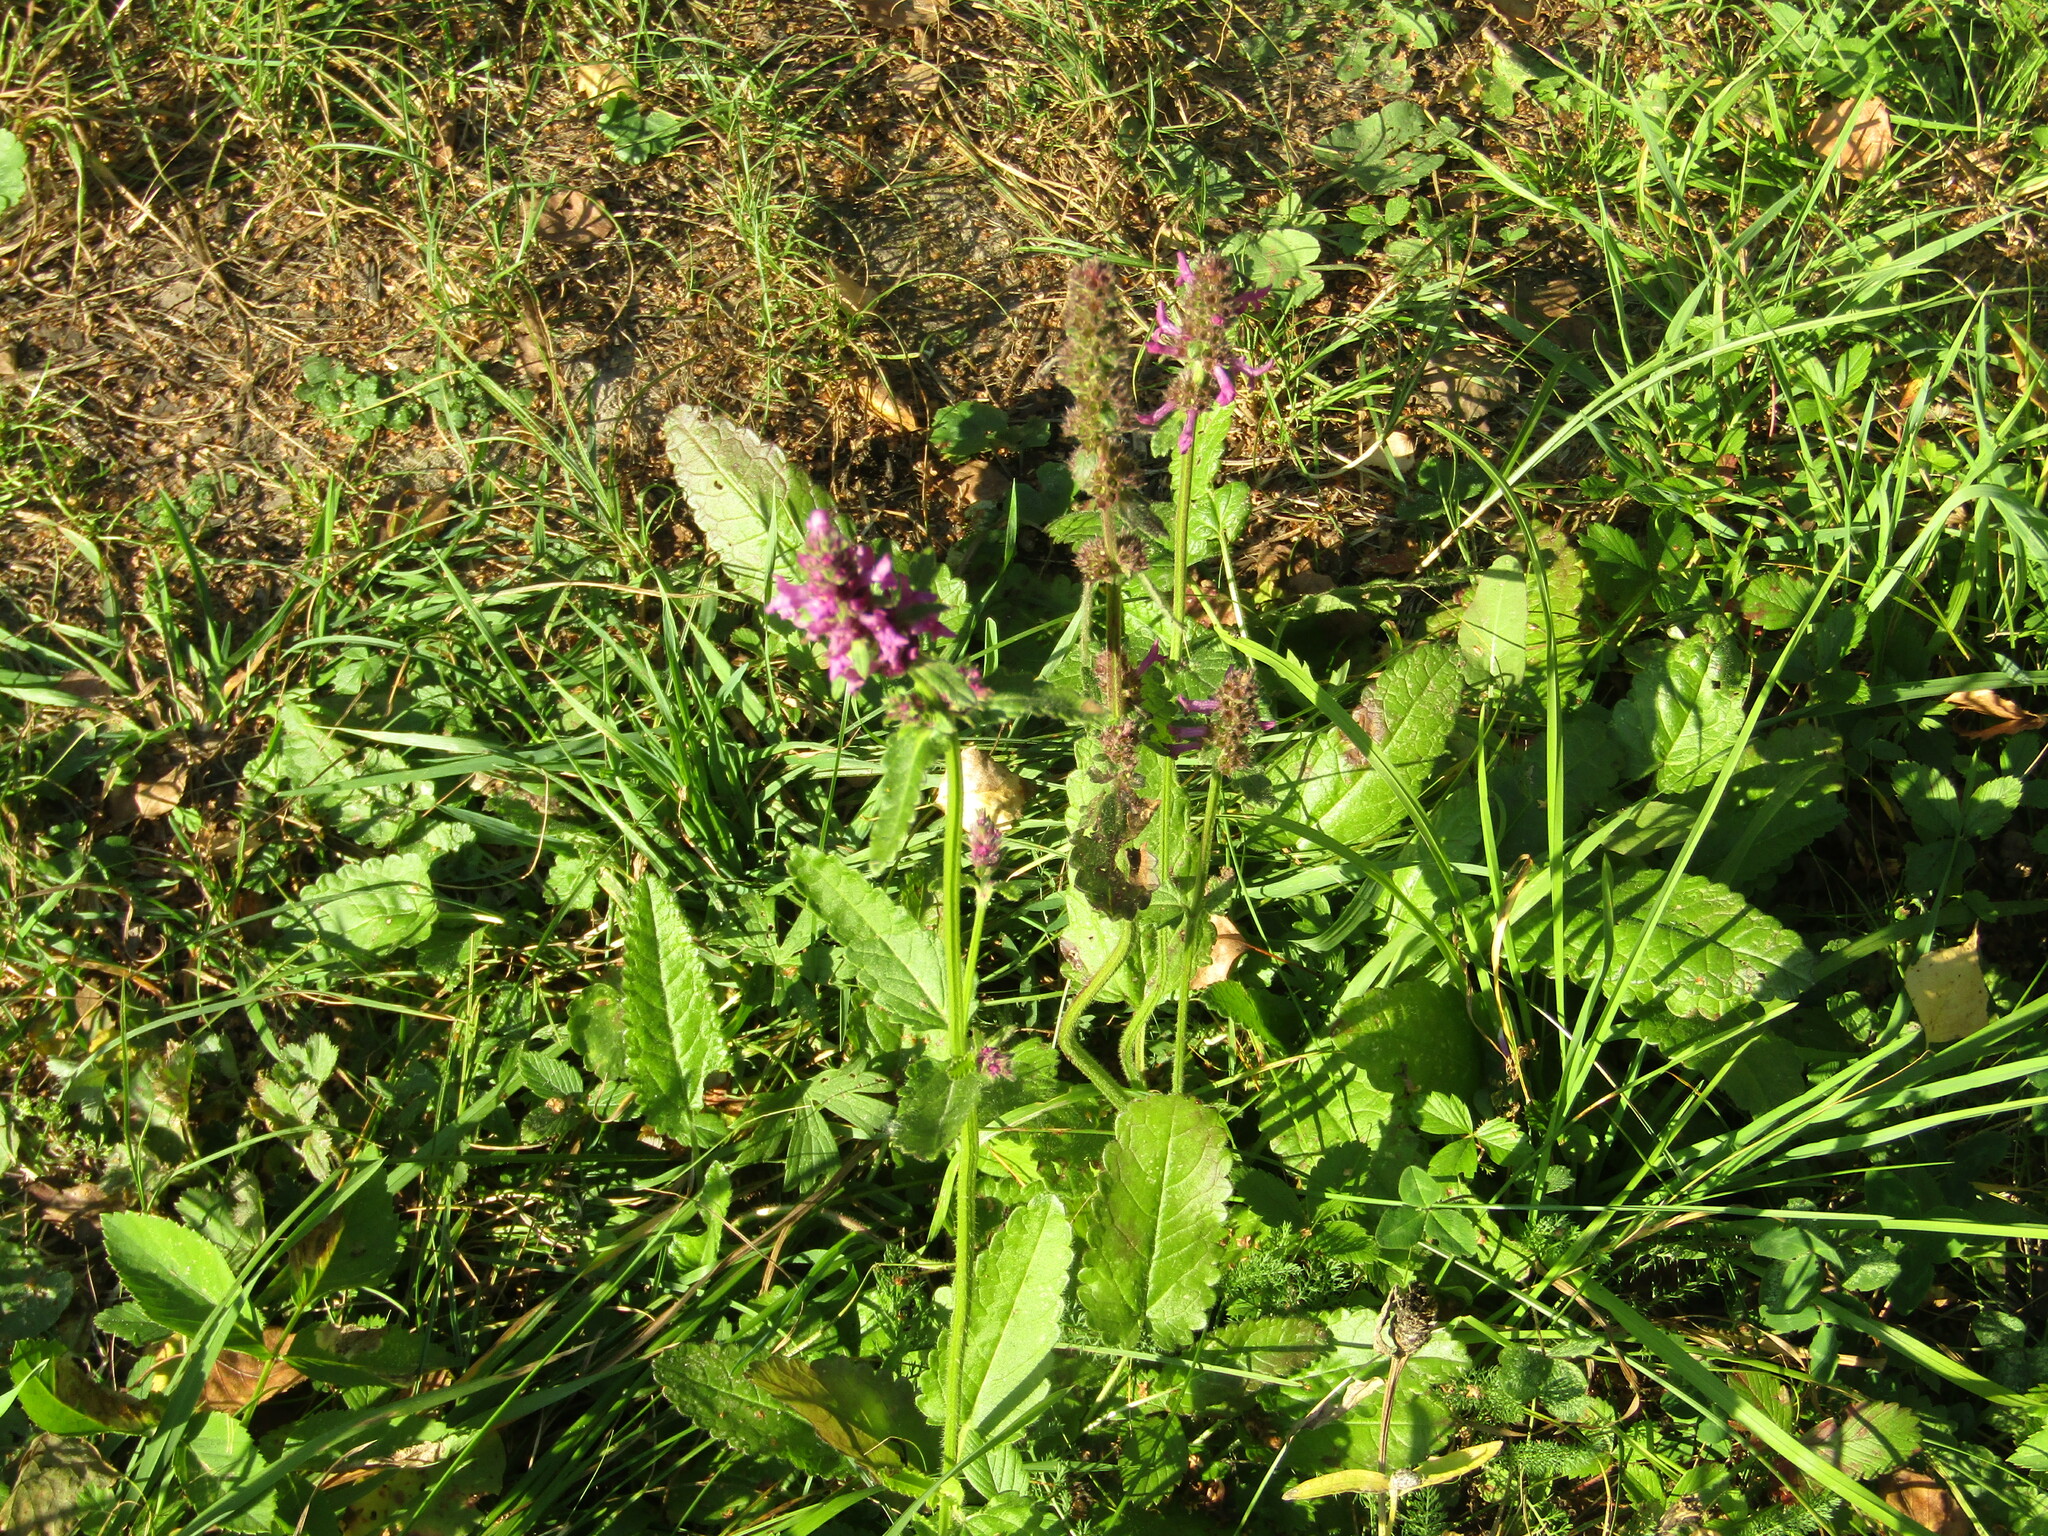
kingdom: Plantae
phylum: Tracheophyta
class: Magnoliopsida
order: Lamiales
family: Lamiaceae
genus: Betonica
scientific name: Betonica officinalis
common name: Bishop's-wort
